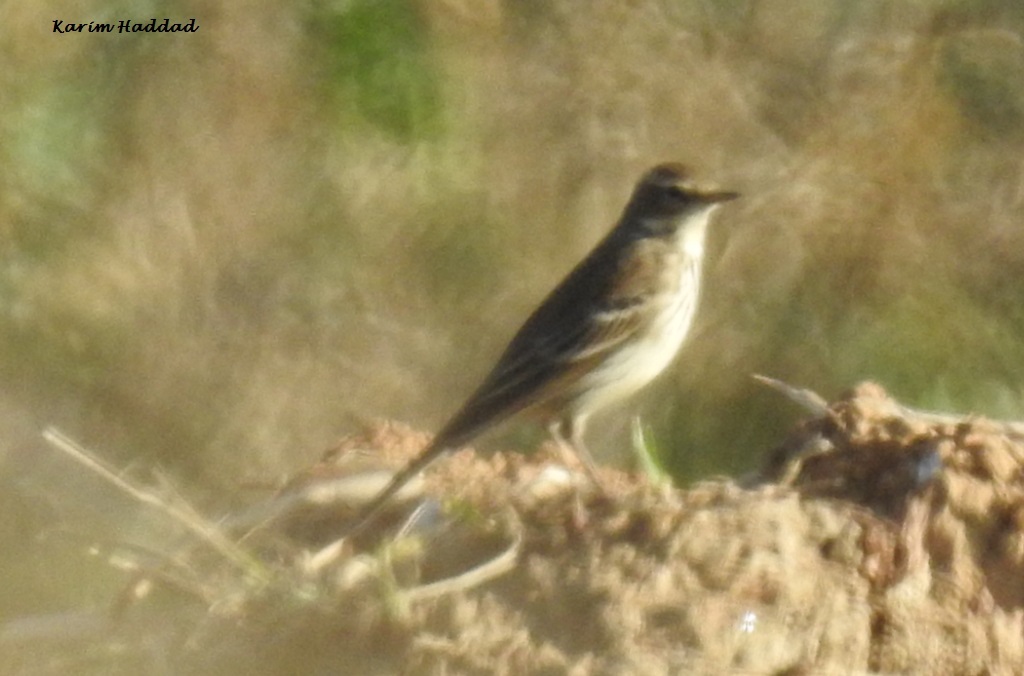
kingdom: Animalia
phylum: Chordata
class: Aves
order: Passeriformes
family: Motacillidae
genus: Anthus
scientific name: Anthus spinoletta
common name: Water pipit
